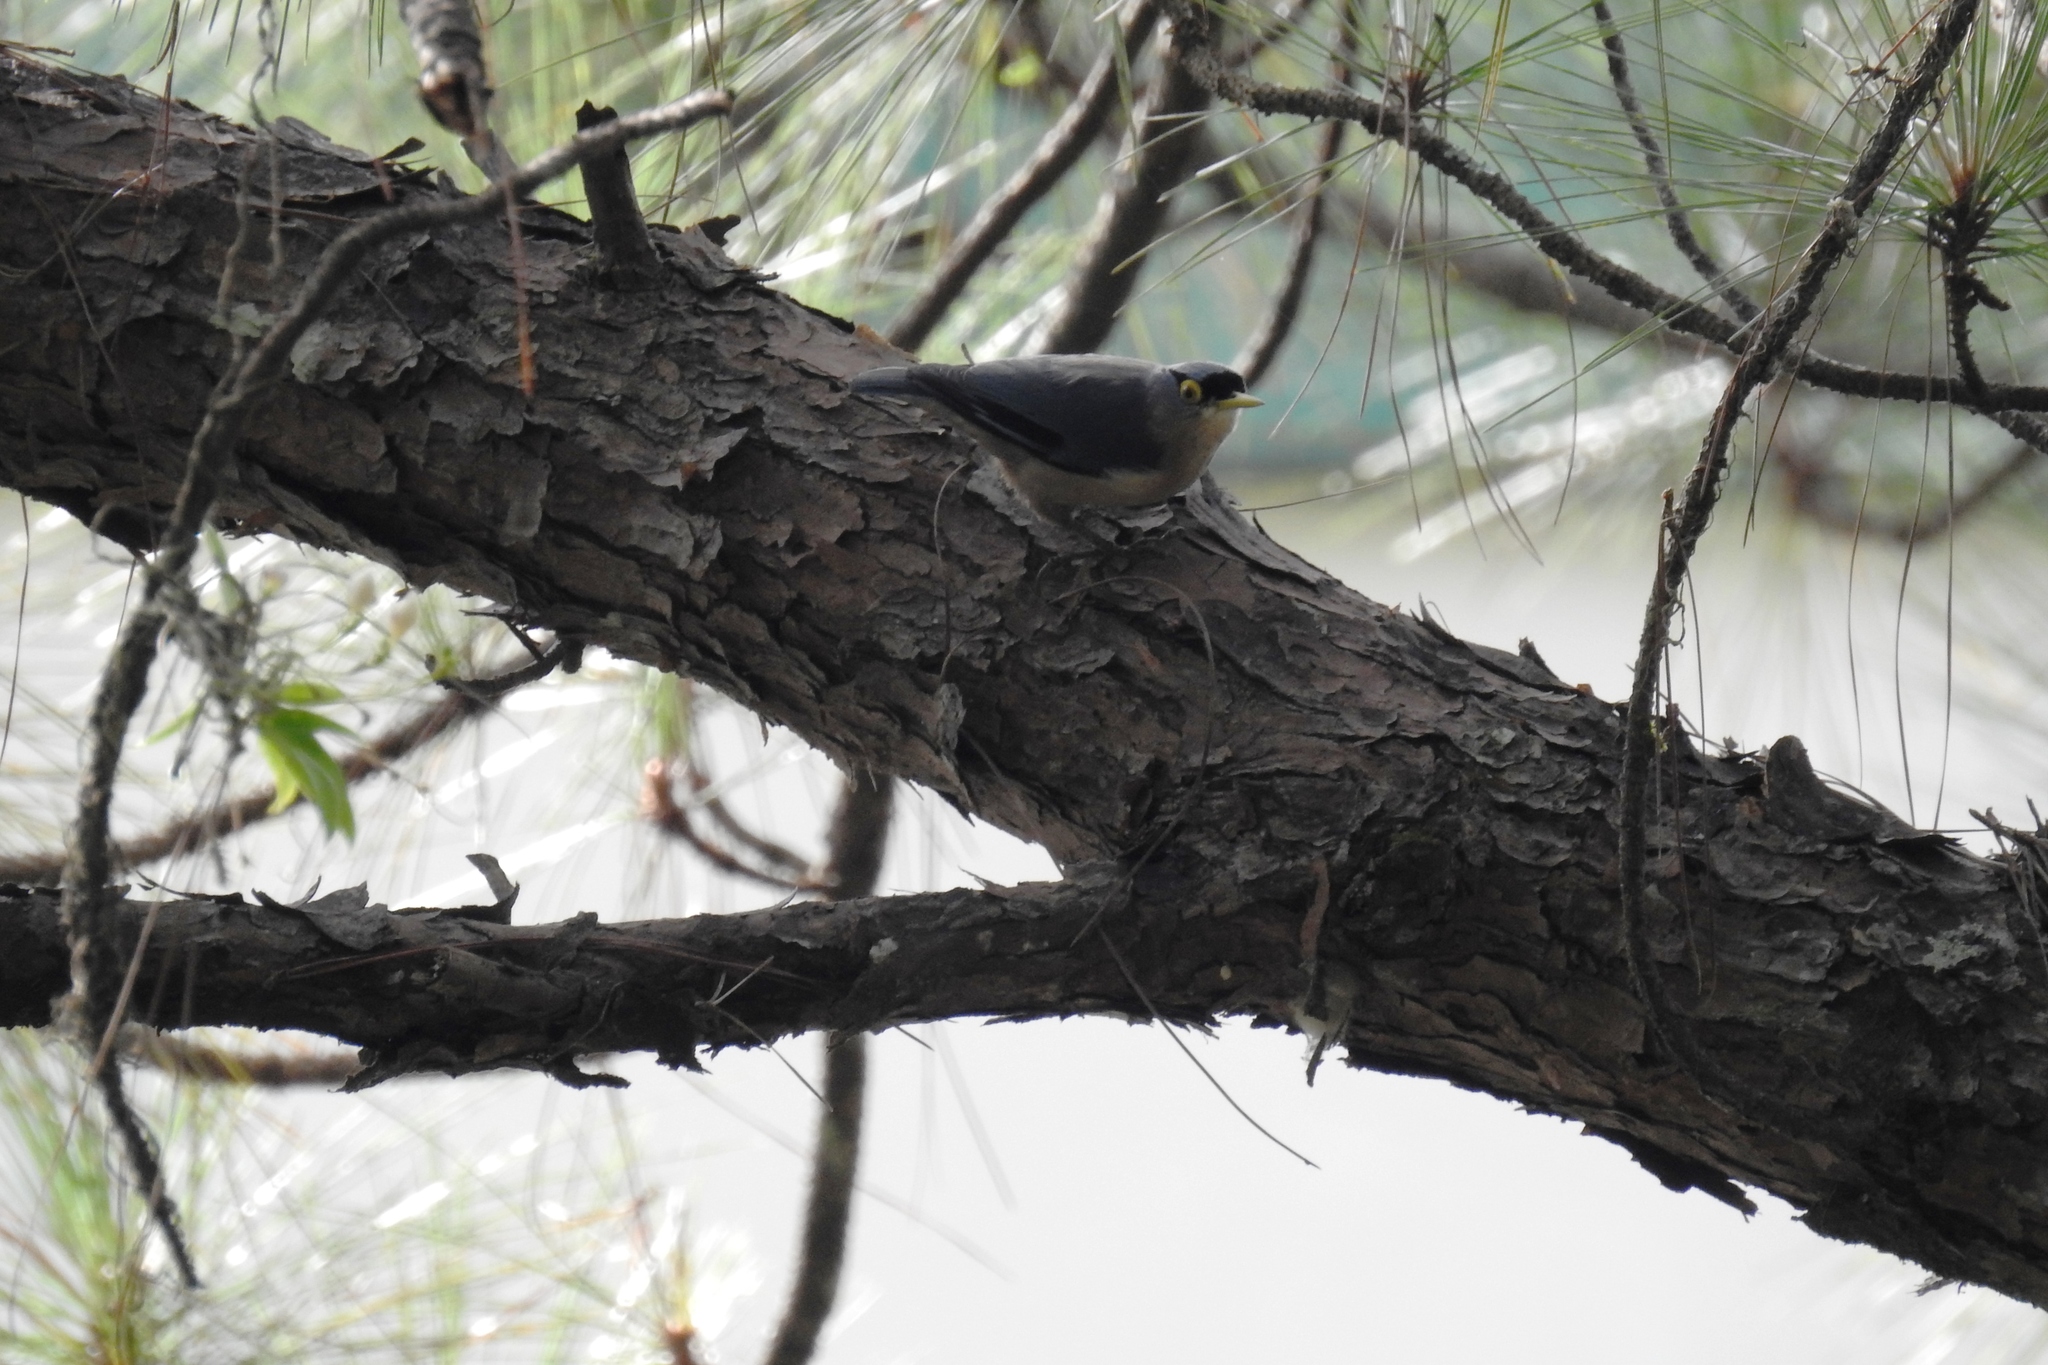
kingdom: Animalia
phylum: Chordata
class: Aves
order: Passeriformes
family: Sittidae
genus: Sitta
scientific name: Sitta oenochlamys
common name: Sulphur-billed nuthatch
